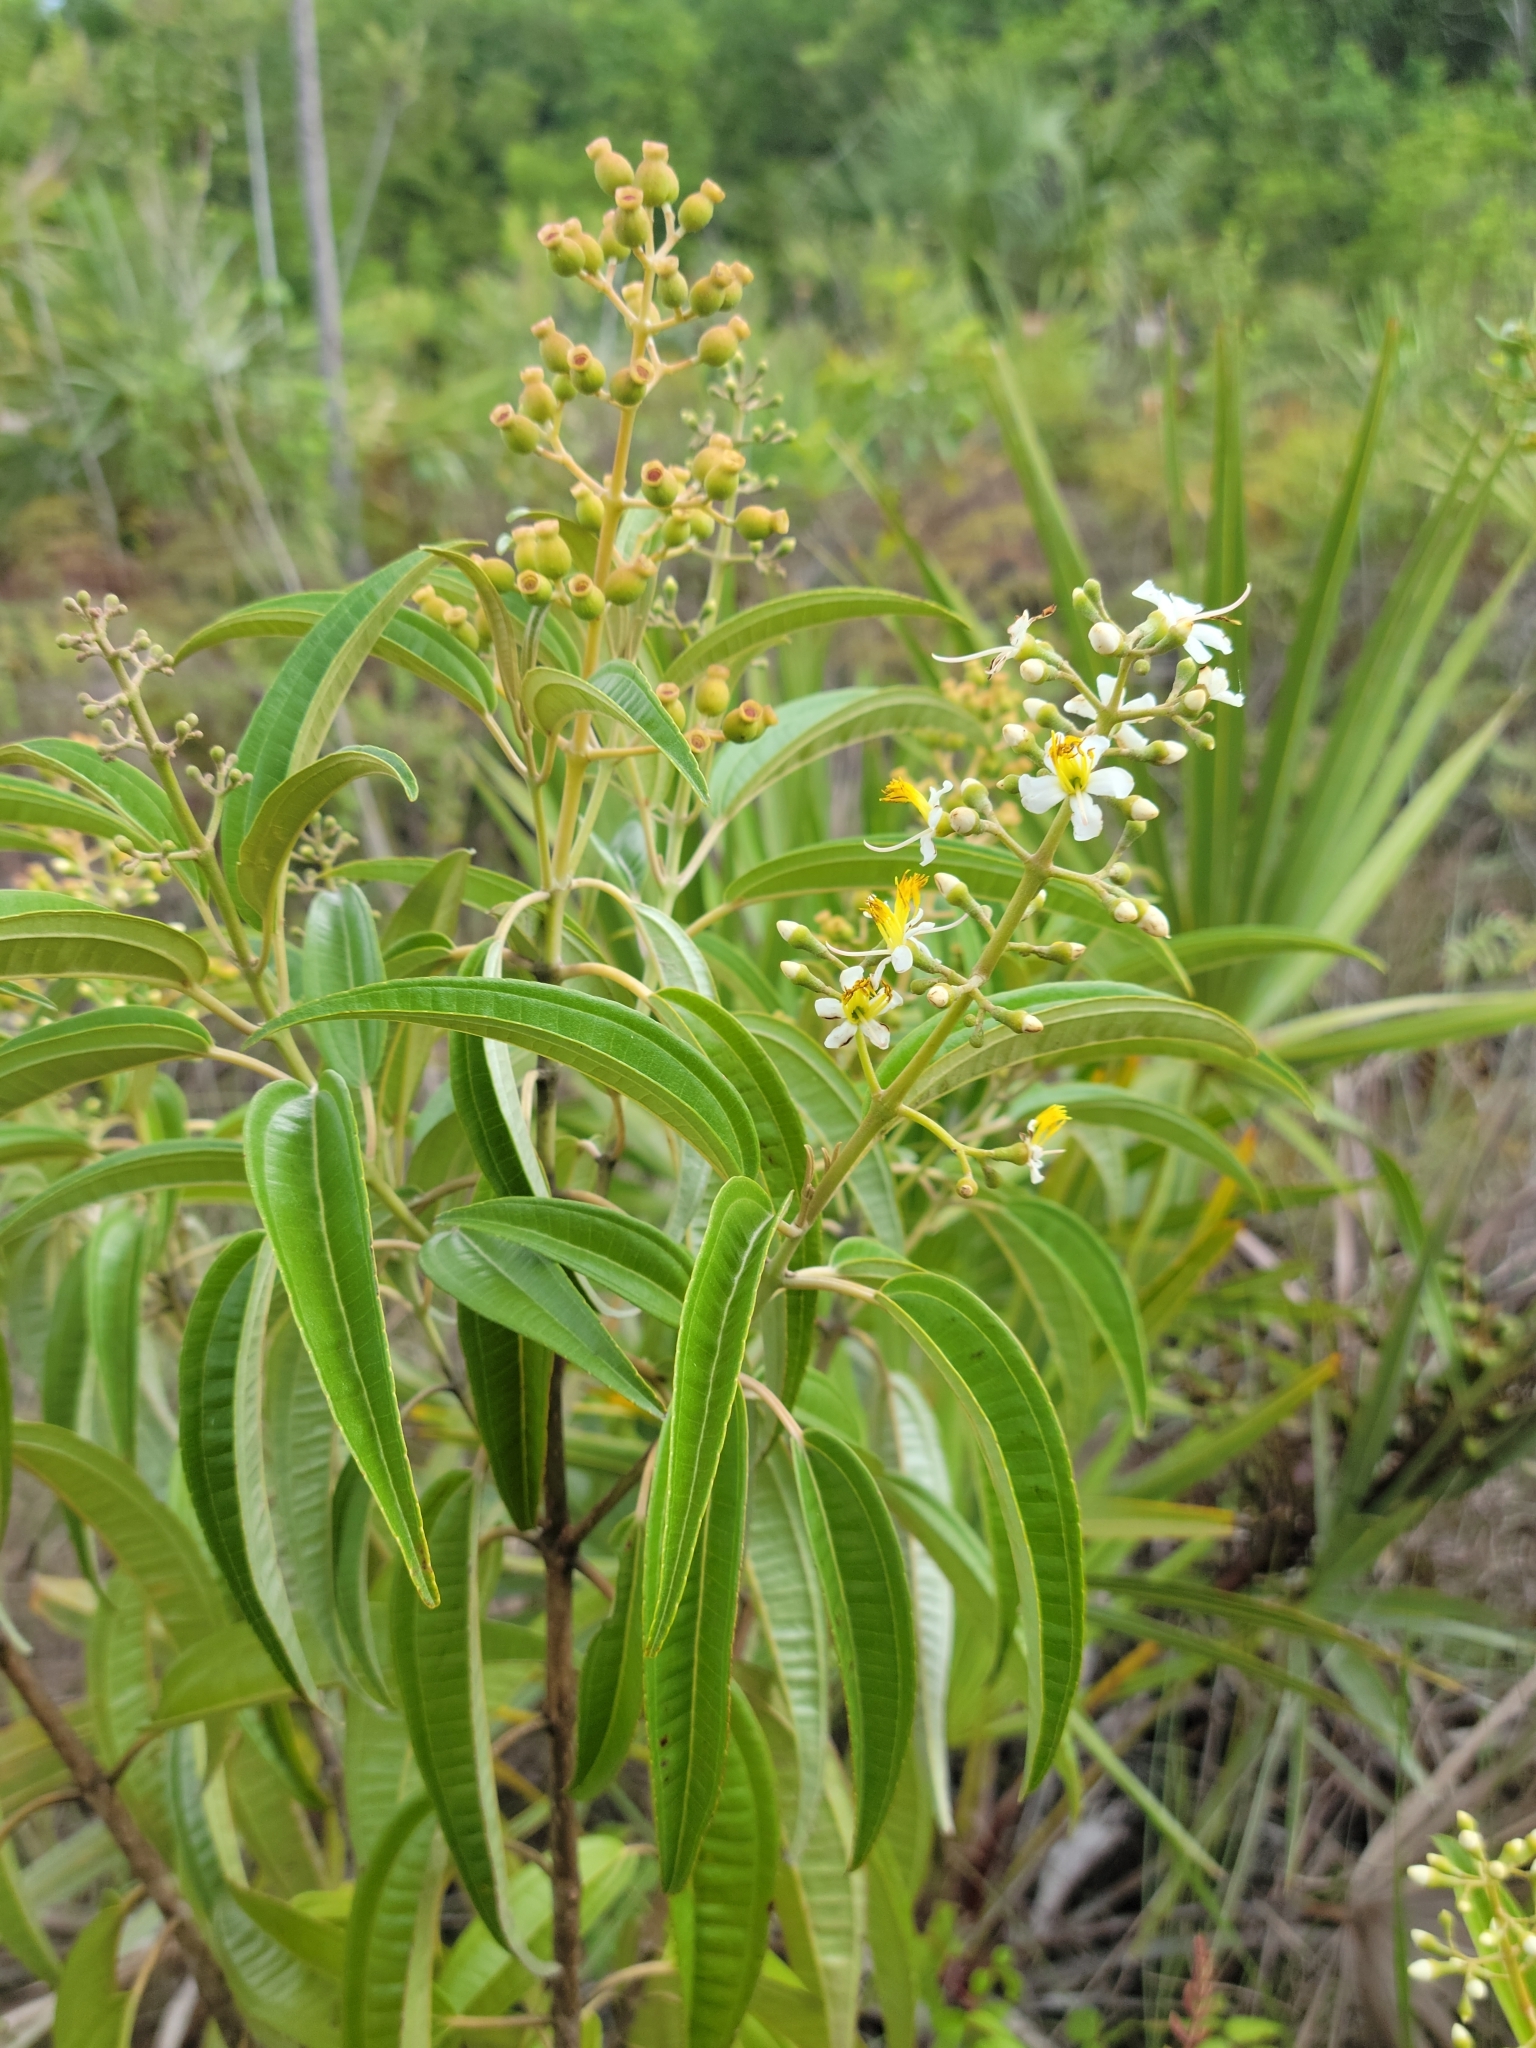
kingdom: Plantae
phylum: Tracheophyta
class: Magnoliopsida
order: Myrtales
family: Melastomataceae
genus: Miconia
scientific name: Miconia bicolor
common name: Johnnyberry
